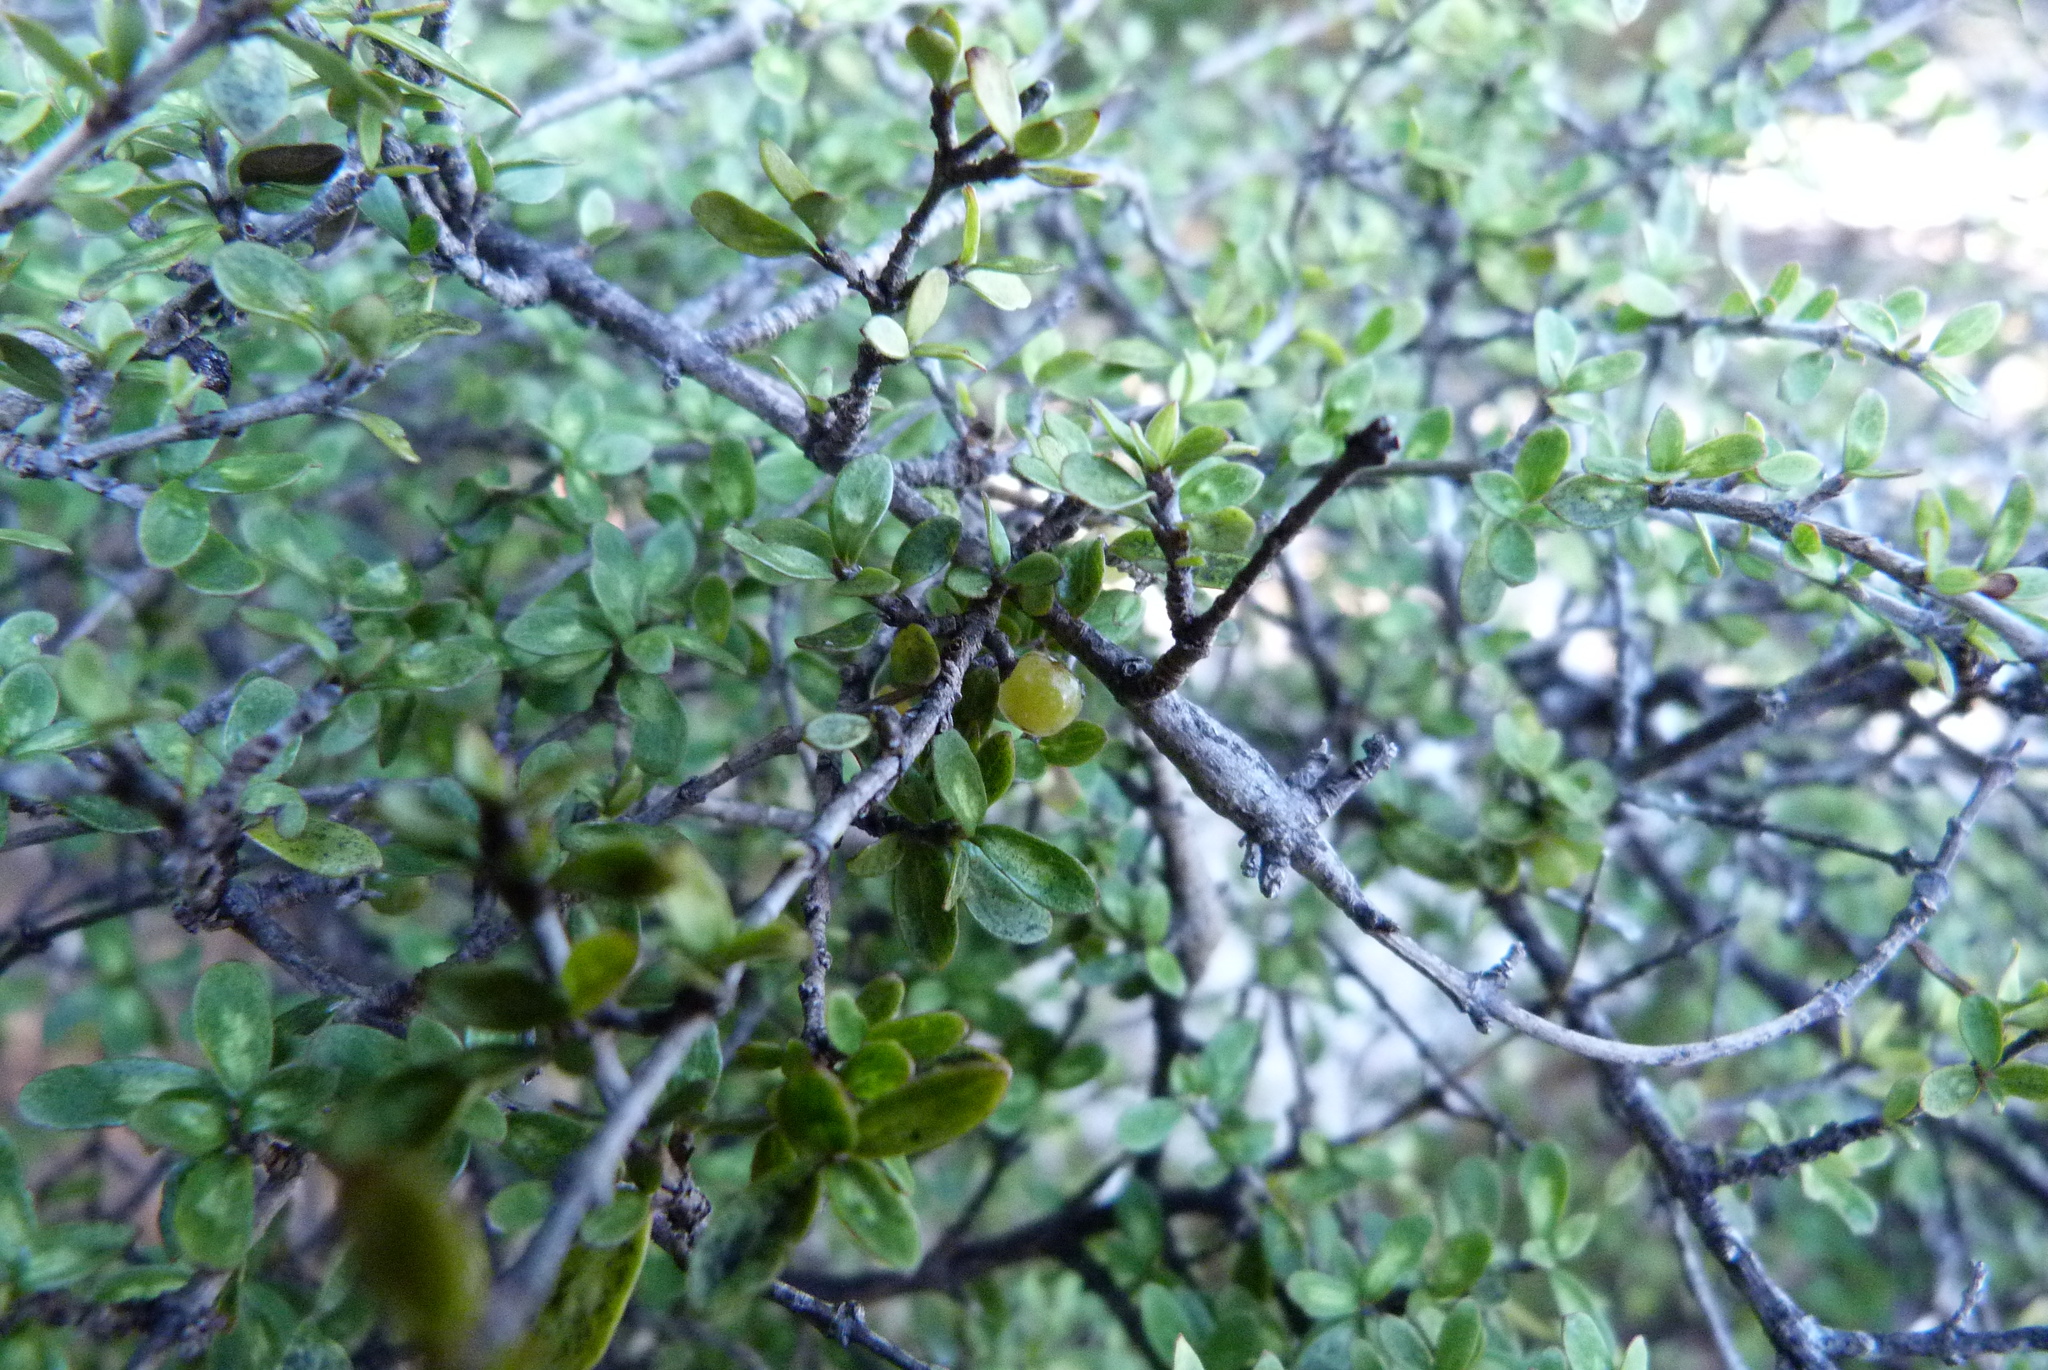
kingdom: Plantae
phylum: Tracheophyta
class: Magnoliopsida
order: Gentianales
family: Rubiaceae
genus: Coprosma
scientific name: Coprosma dumosa
